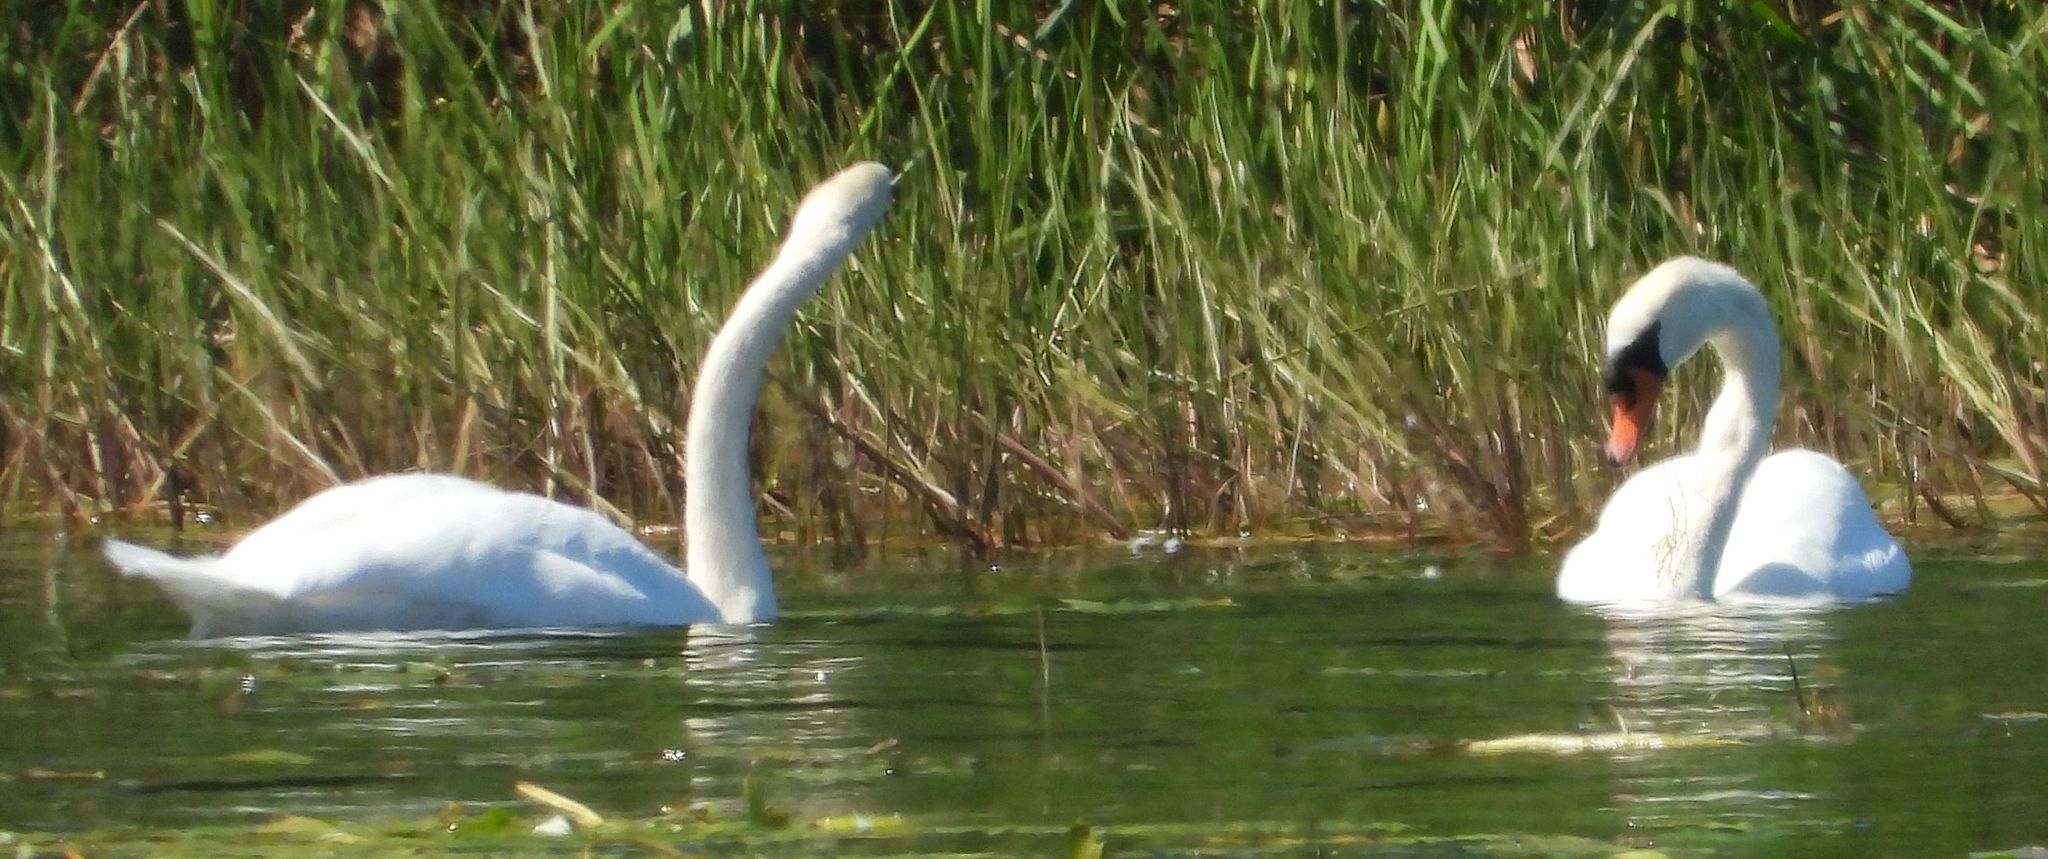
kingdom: Animalia
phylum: Chordata
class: Aves
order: Anseriformes
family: Anatidae
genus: Cygnus
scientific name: Cygnus olor
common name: Mute swan
